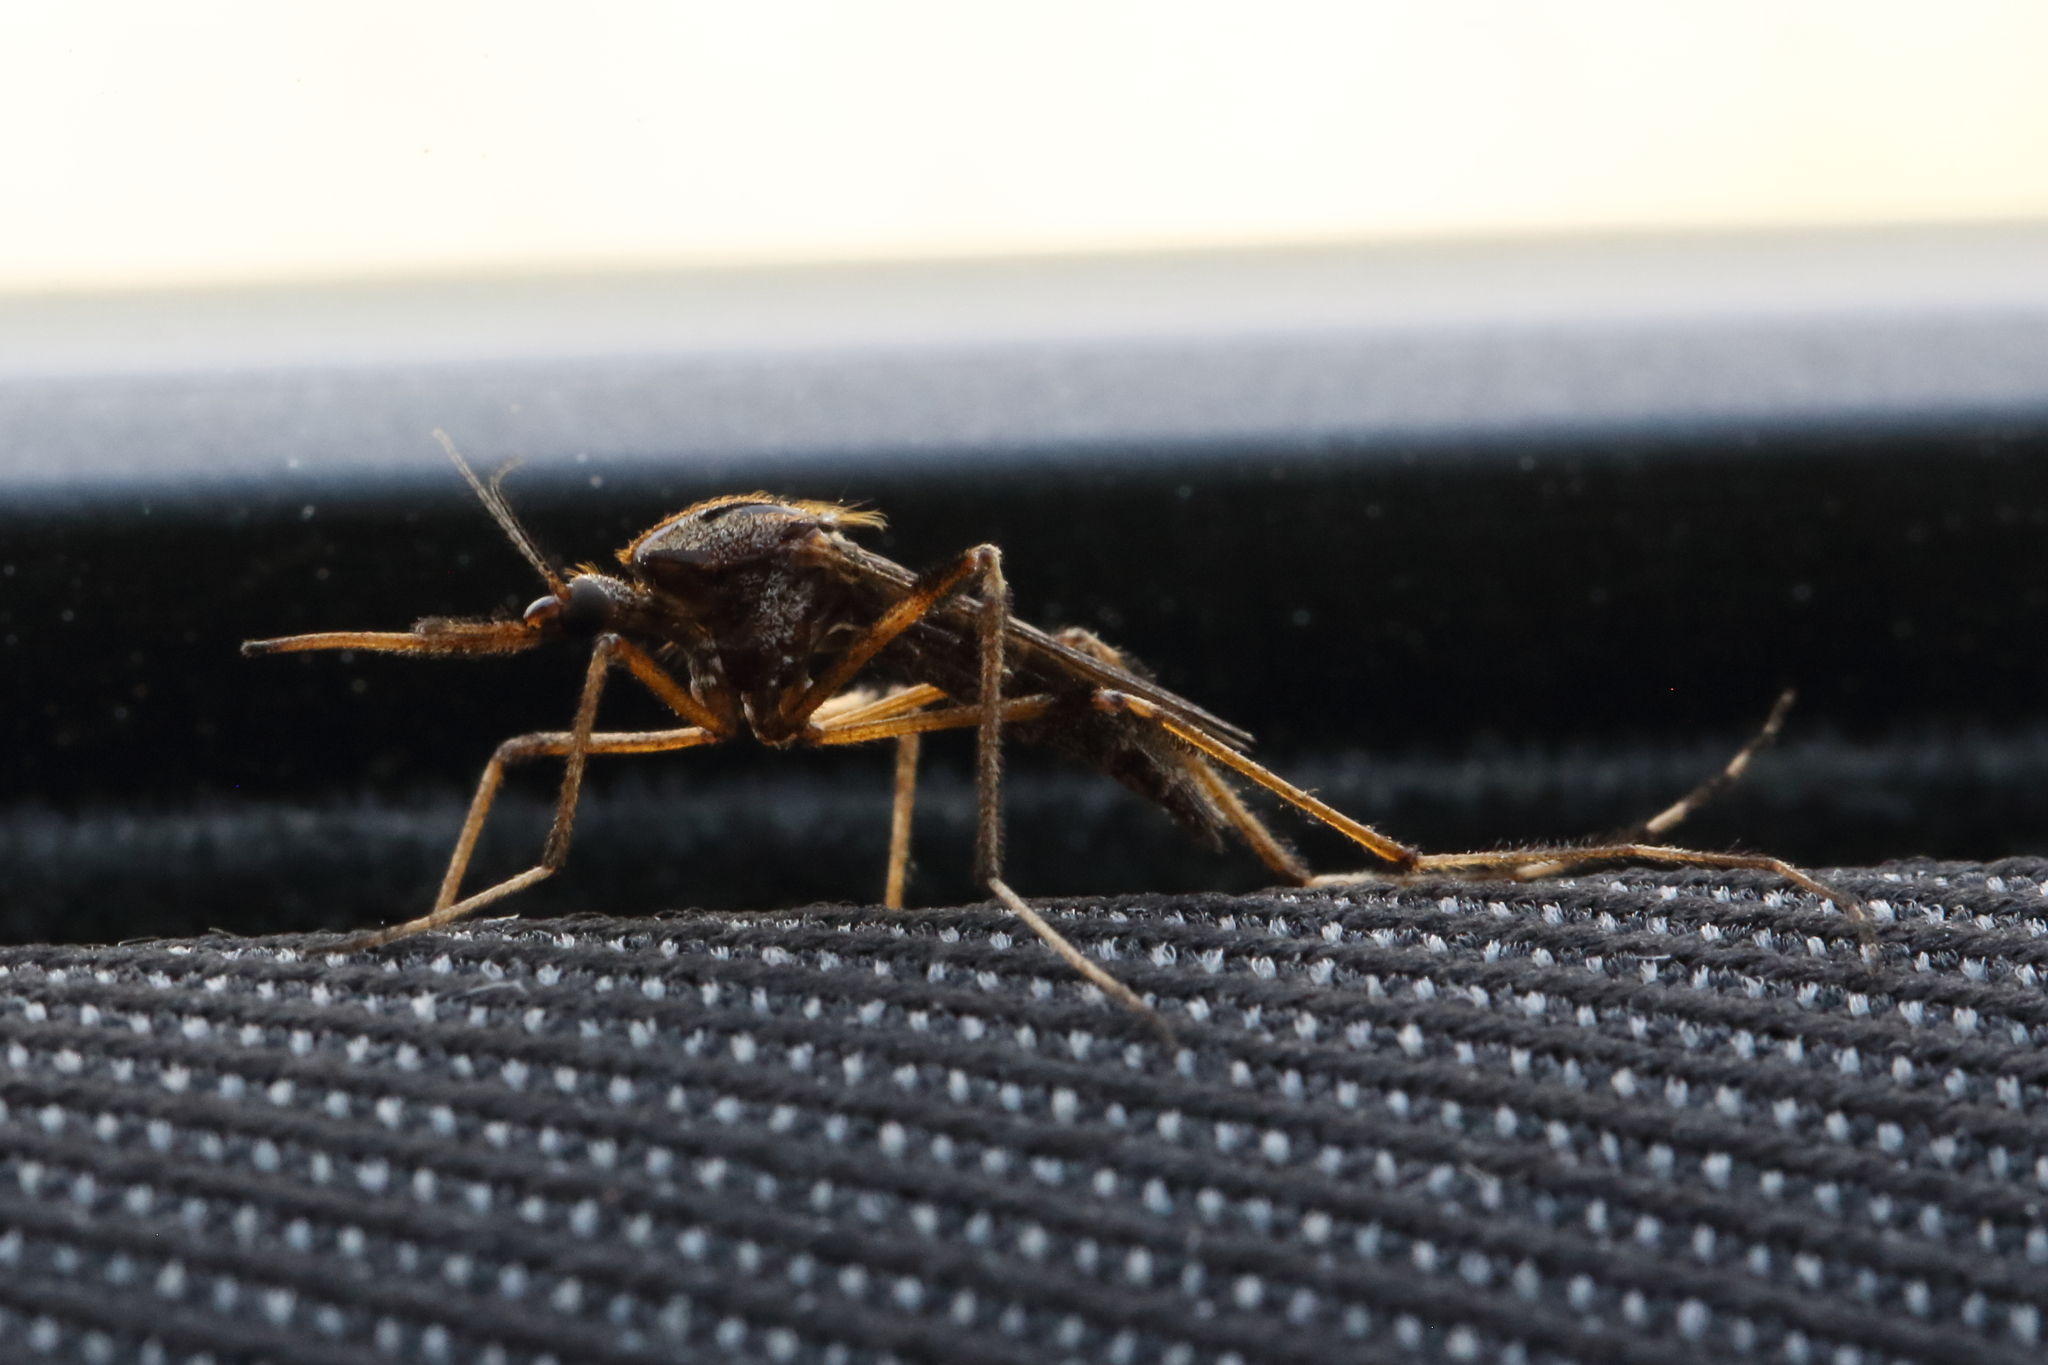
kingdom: Animalia
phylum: Arthropoda
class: Insecta
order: Diptera
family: Culicidae
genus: Psorophora
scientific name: Psorophora ciliata
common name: Gallinipper
